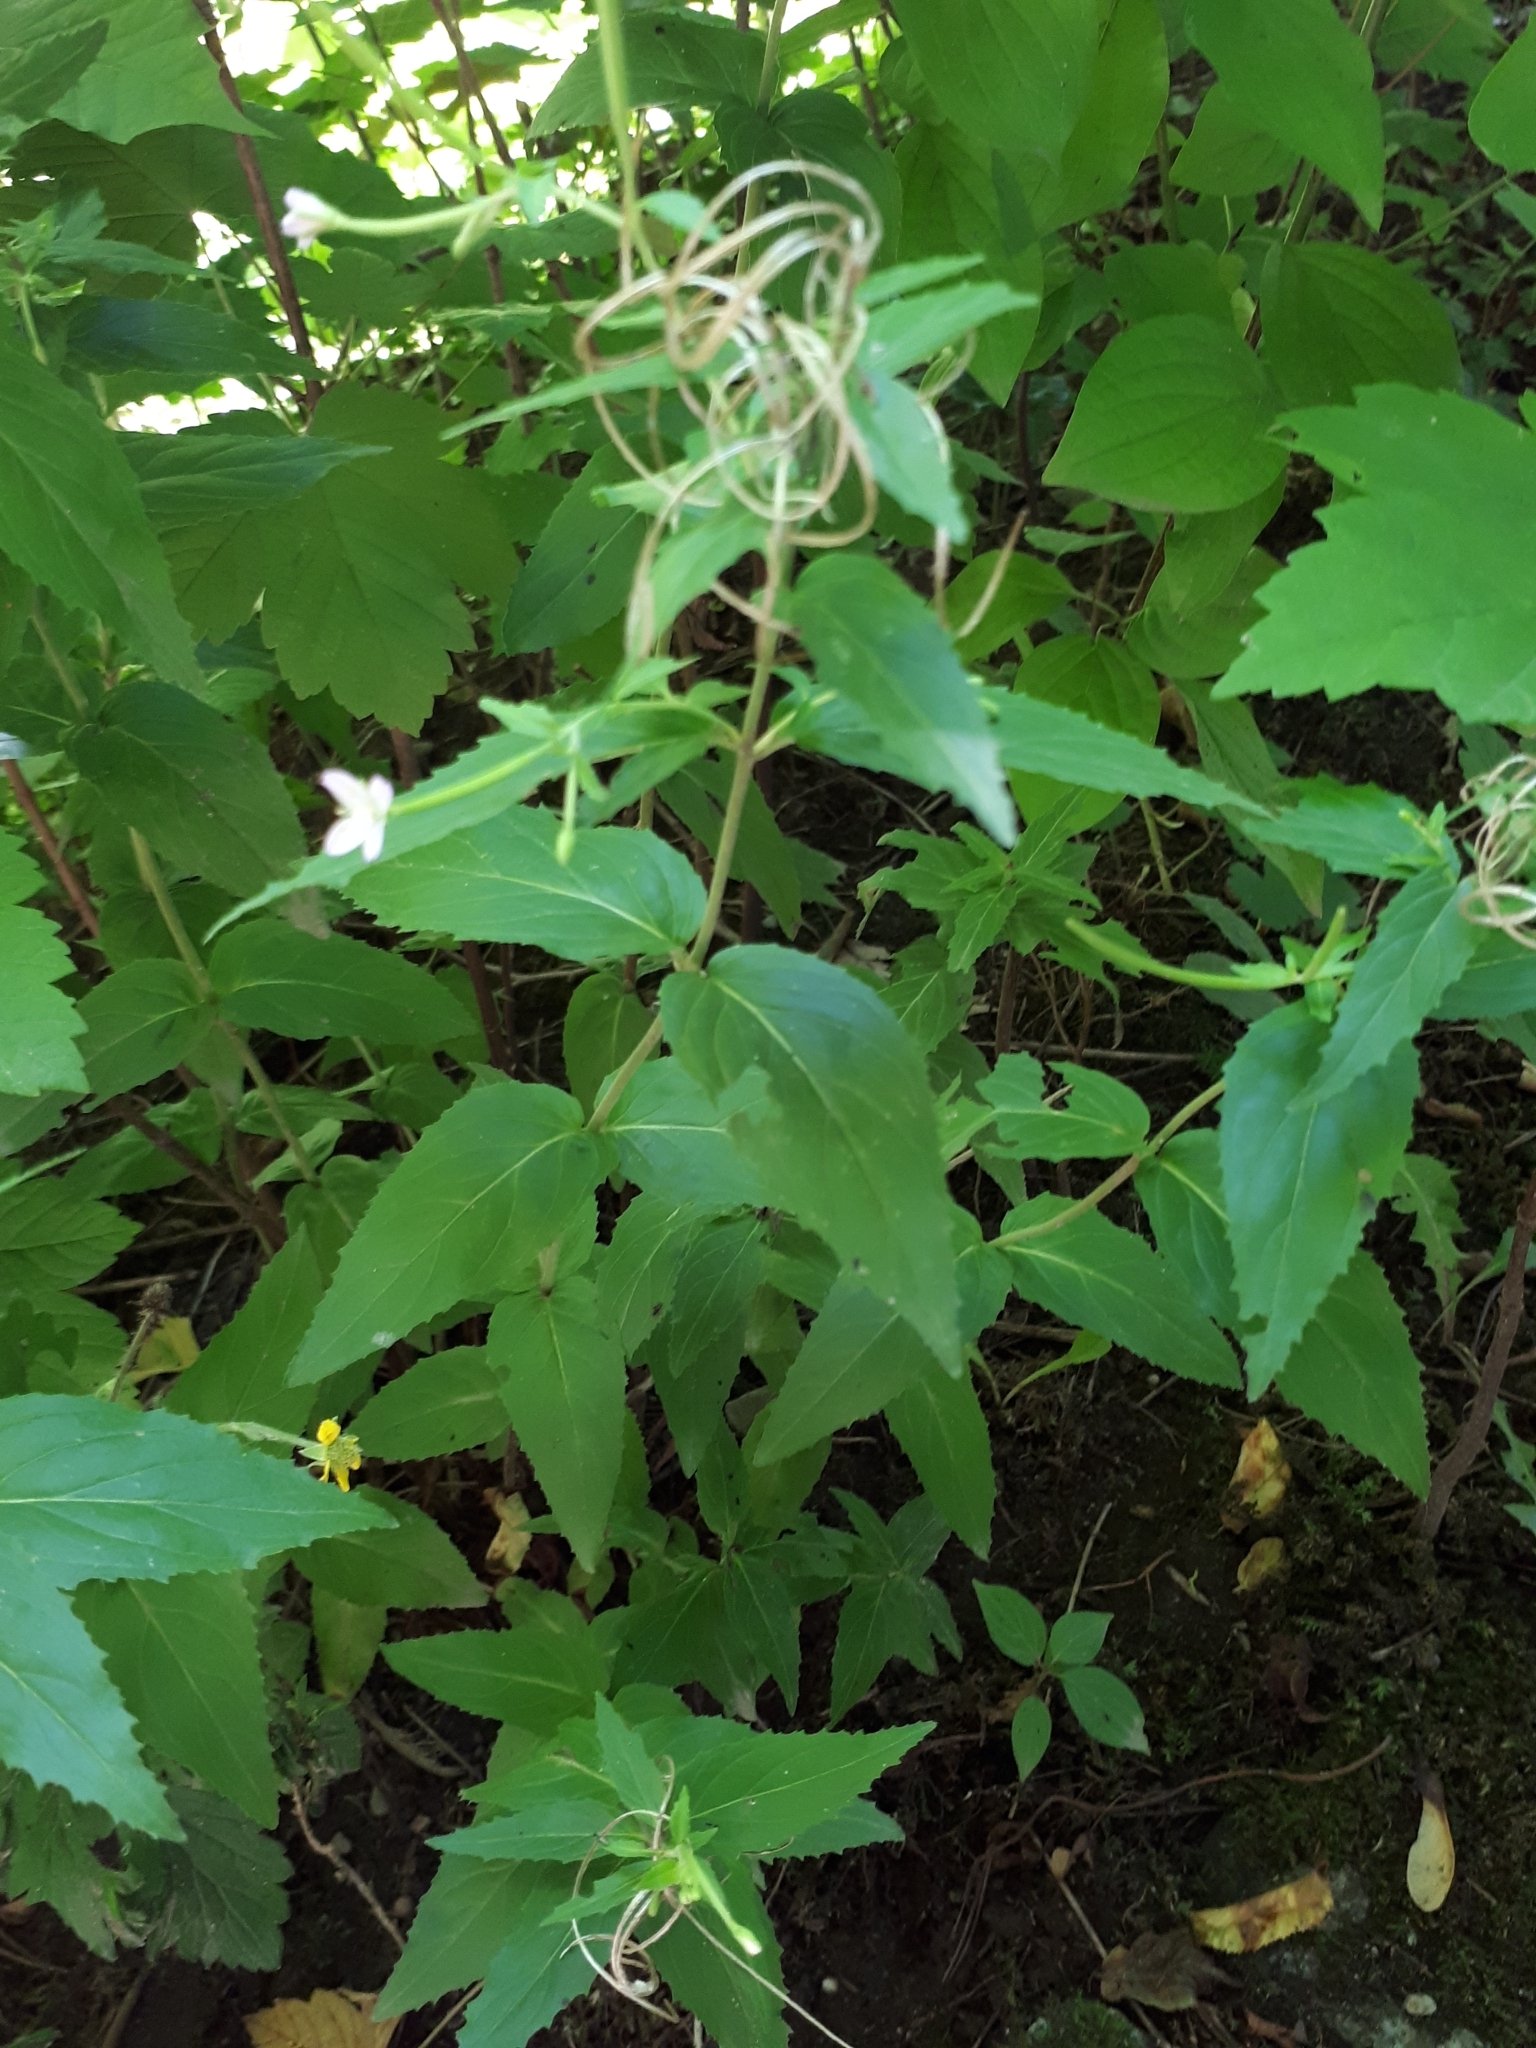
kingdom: Plantae
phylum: Tracheophyta
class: Magnoliopsida
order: Myrtales
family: Onagraceae
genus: Epilobium
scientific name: Epilobium montanum
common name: Broad-leaved willowherb
